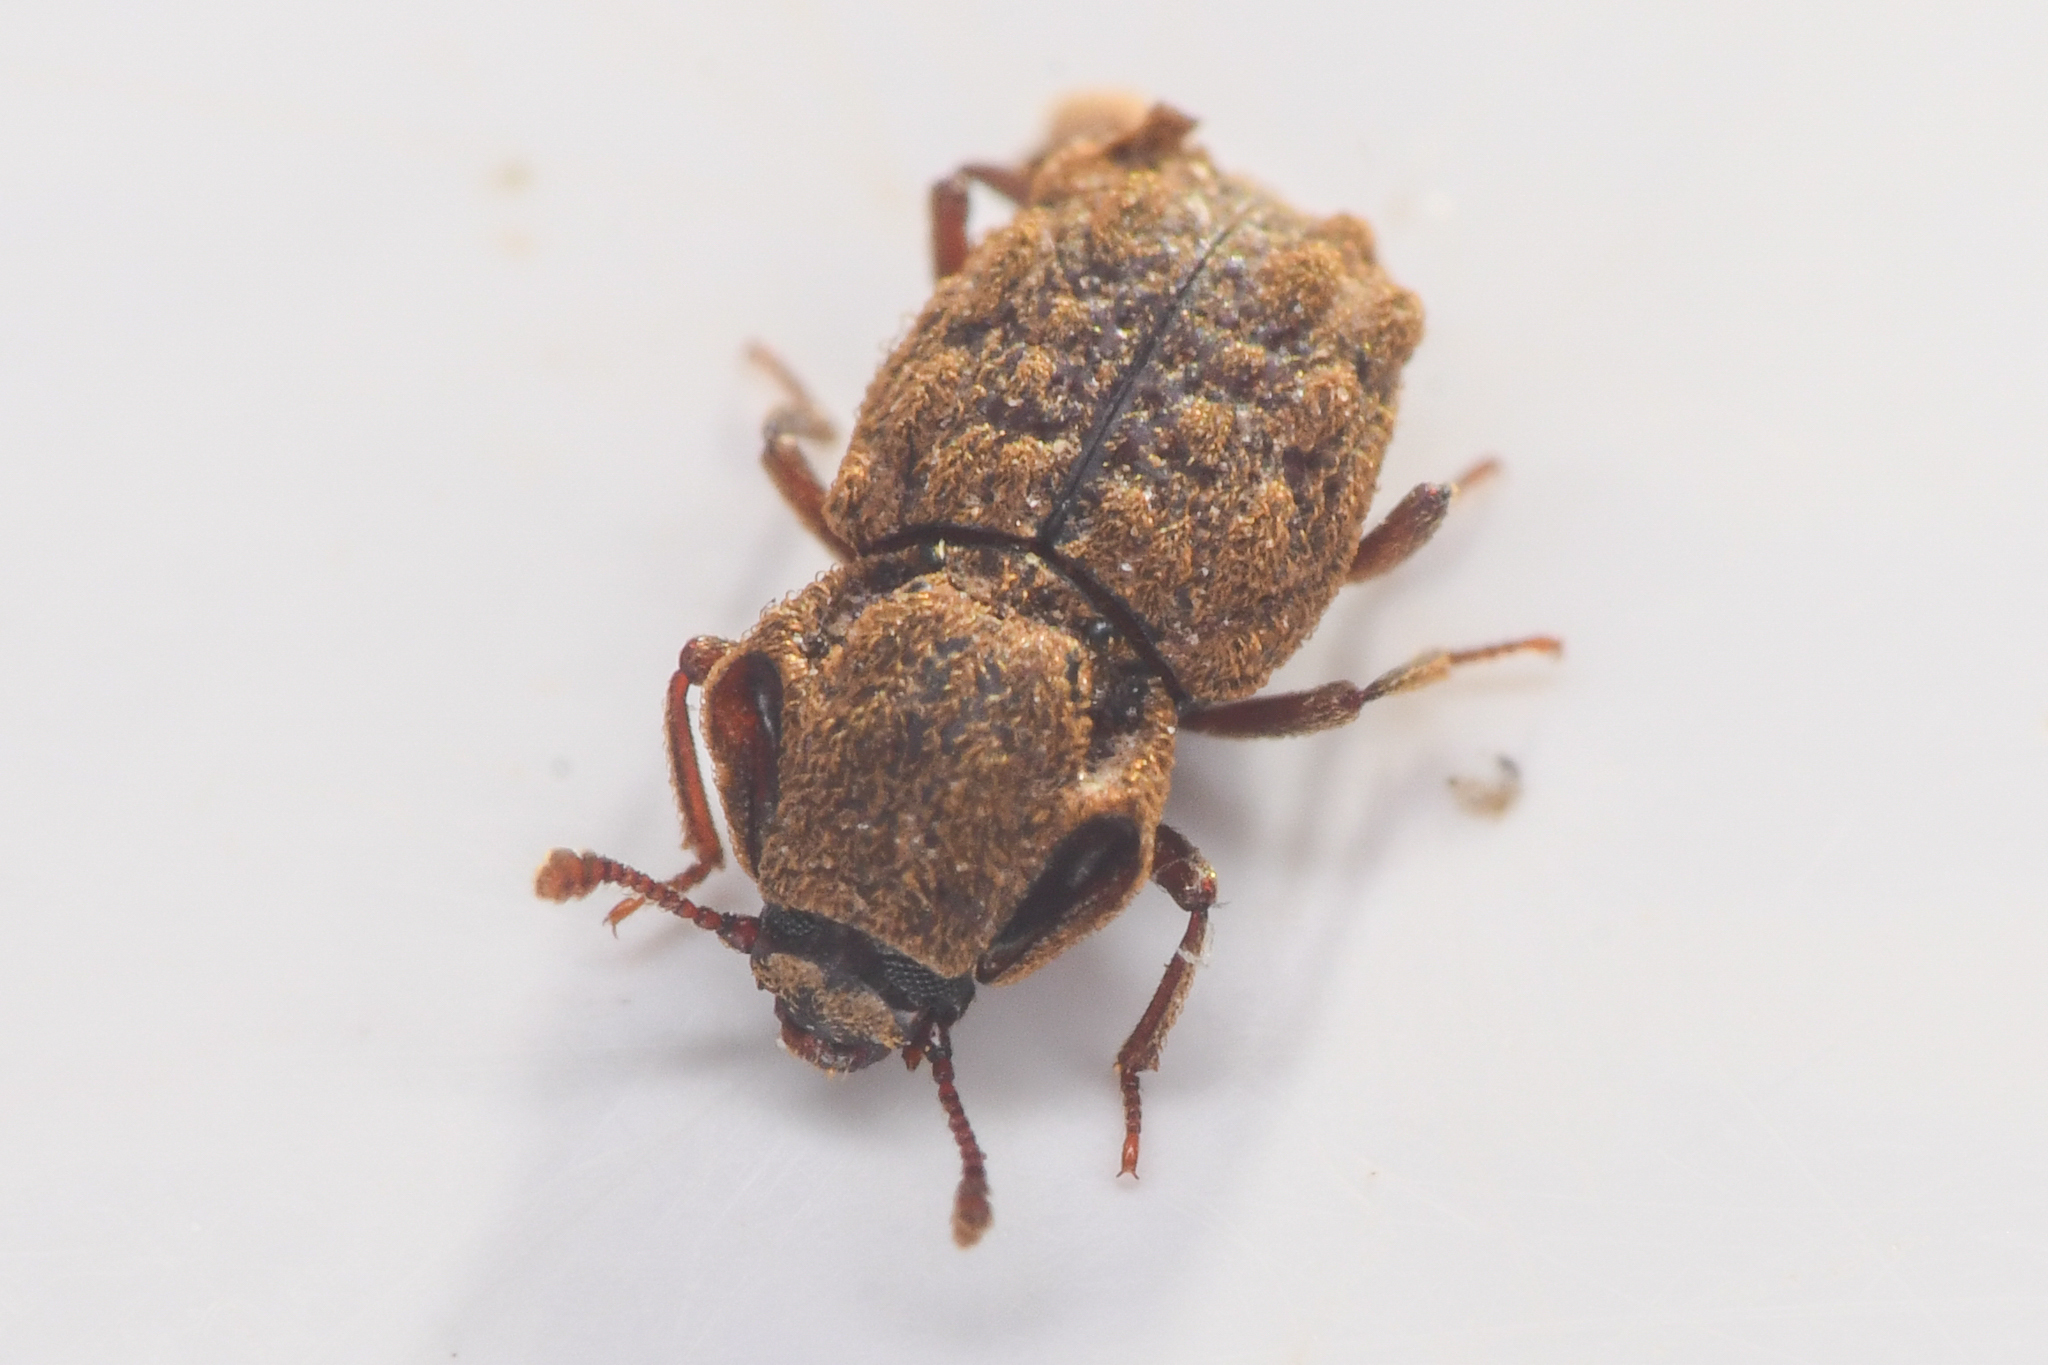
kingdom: Animalia
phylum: Arthropoda
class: Insecta
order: Coleoptera
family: Zopheridae
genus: Usechimorpha
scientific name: Usechimorpha barberi
